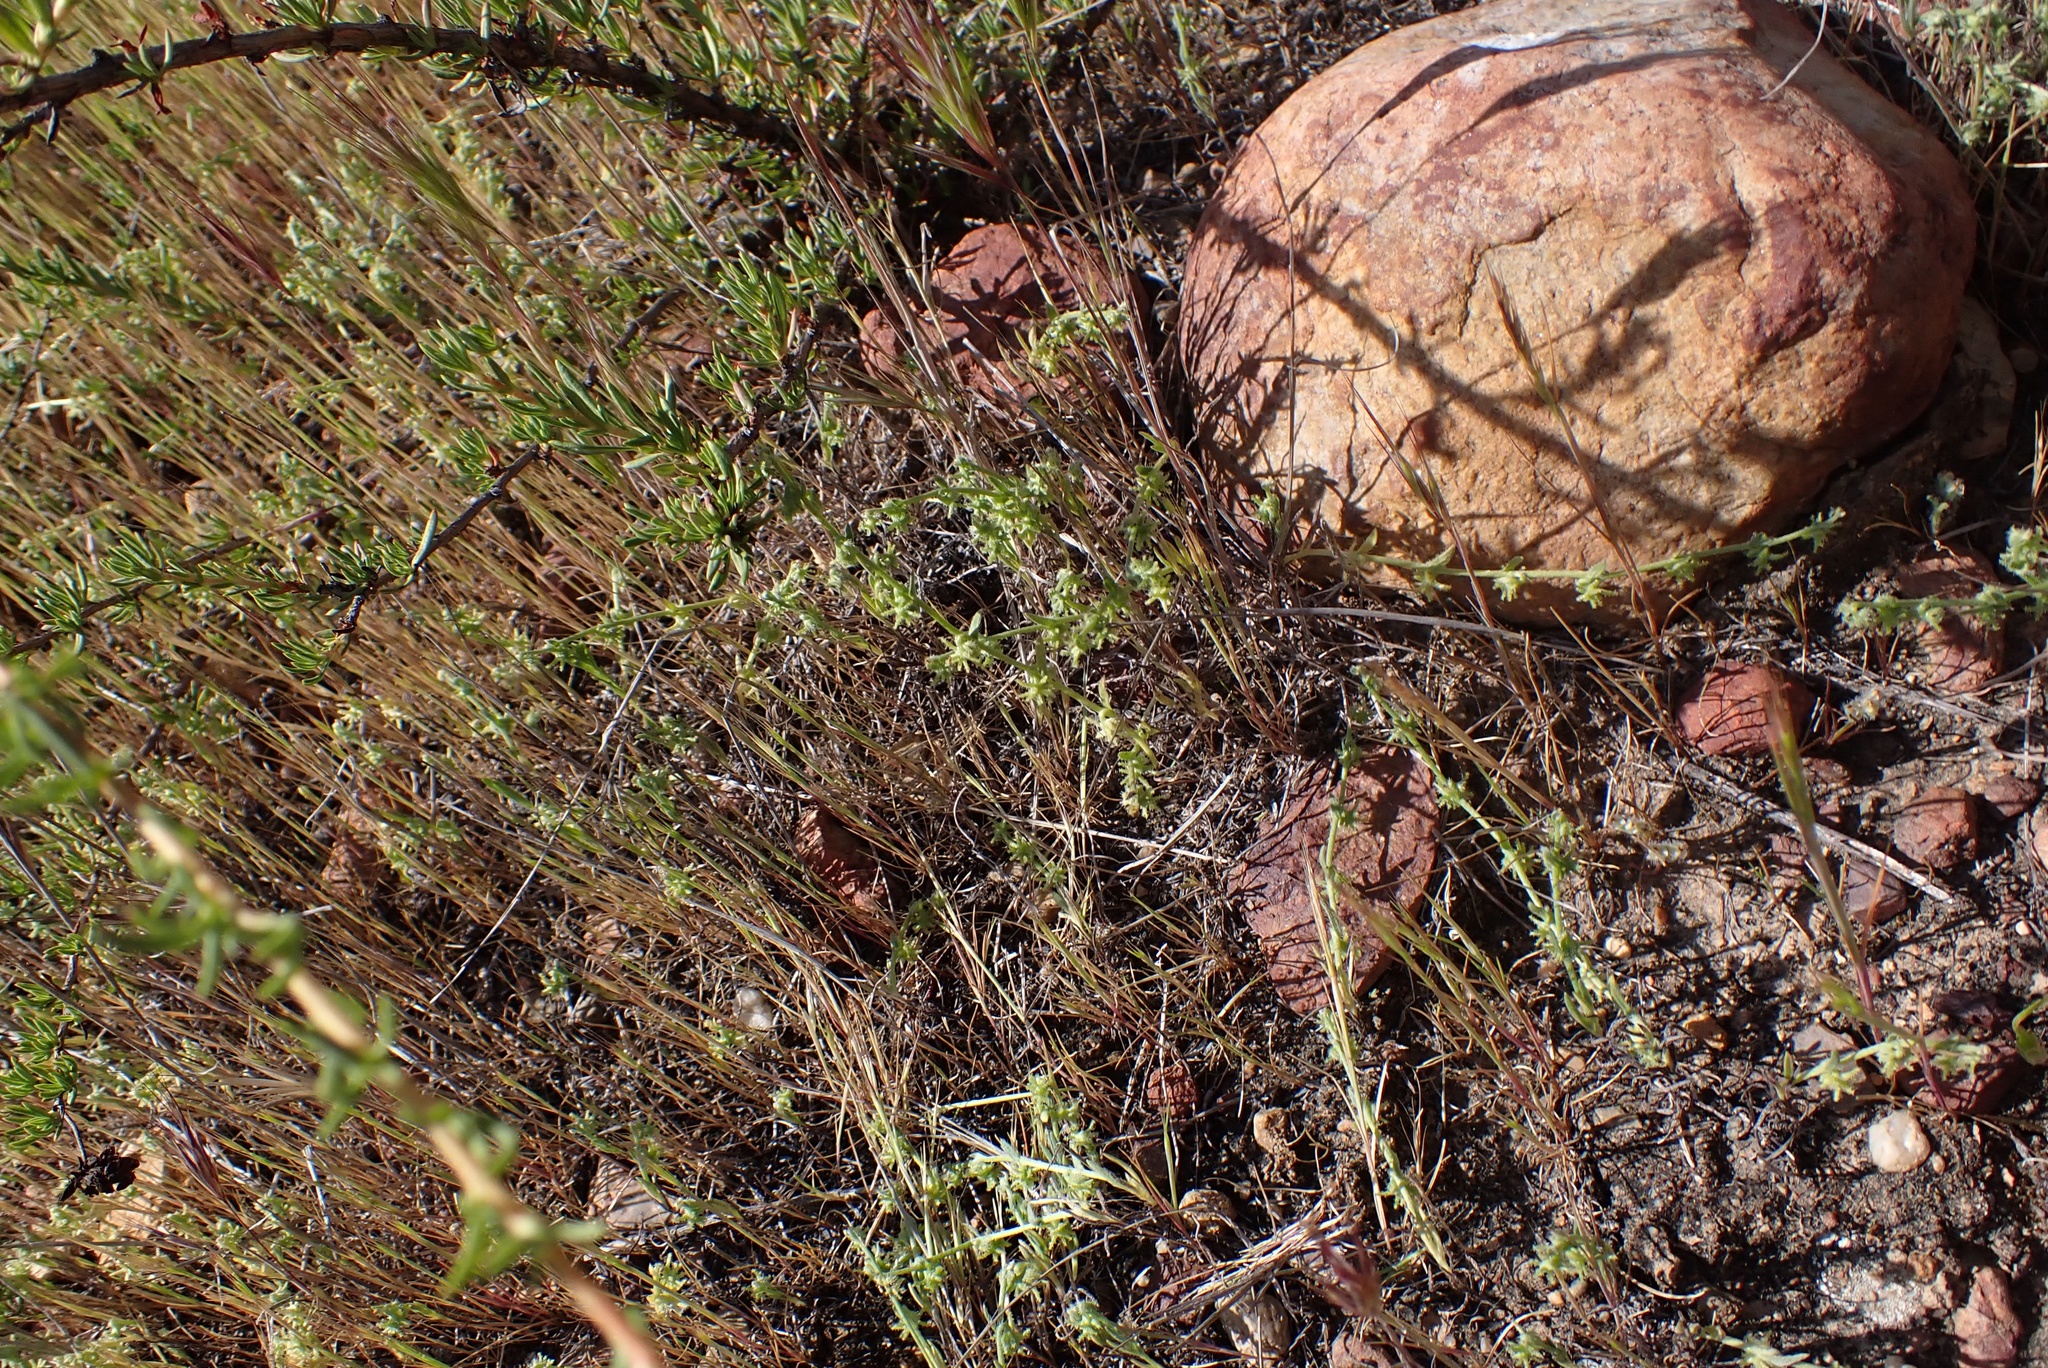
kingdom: Plantae
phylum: Tracheophyta
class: Magnoliopsida
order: Boraginales
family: Boraginaceae
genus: Harpagonella
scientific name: Harpagonella palmeri
